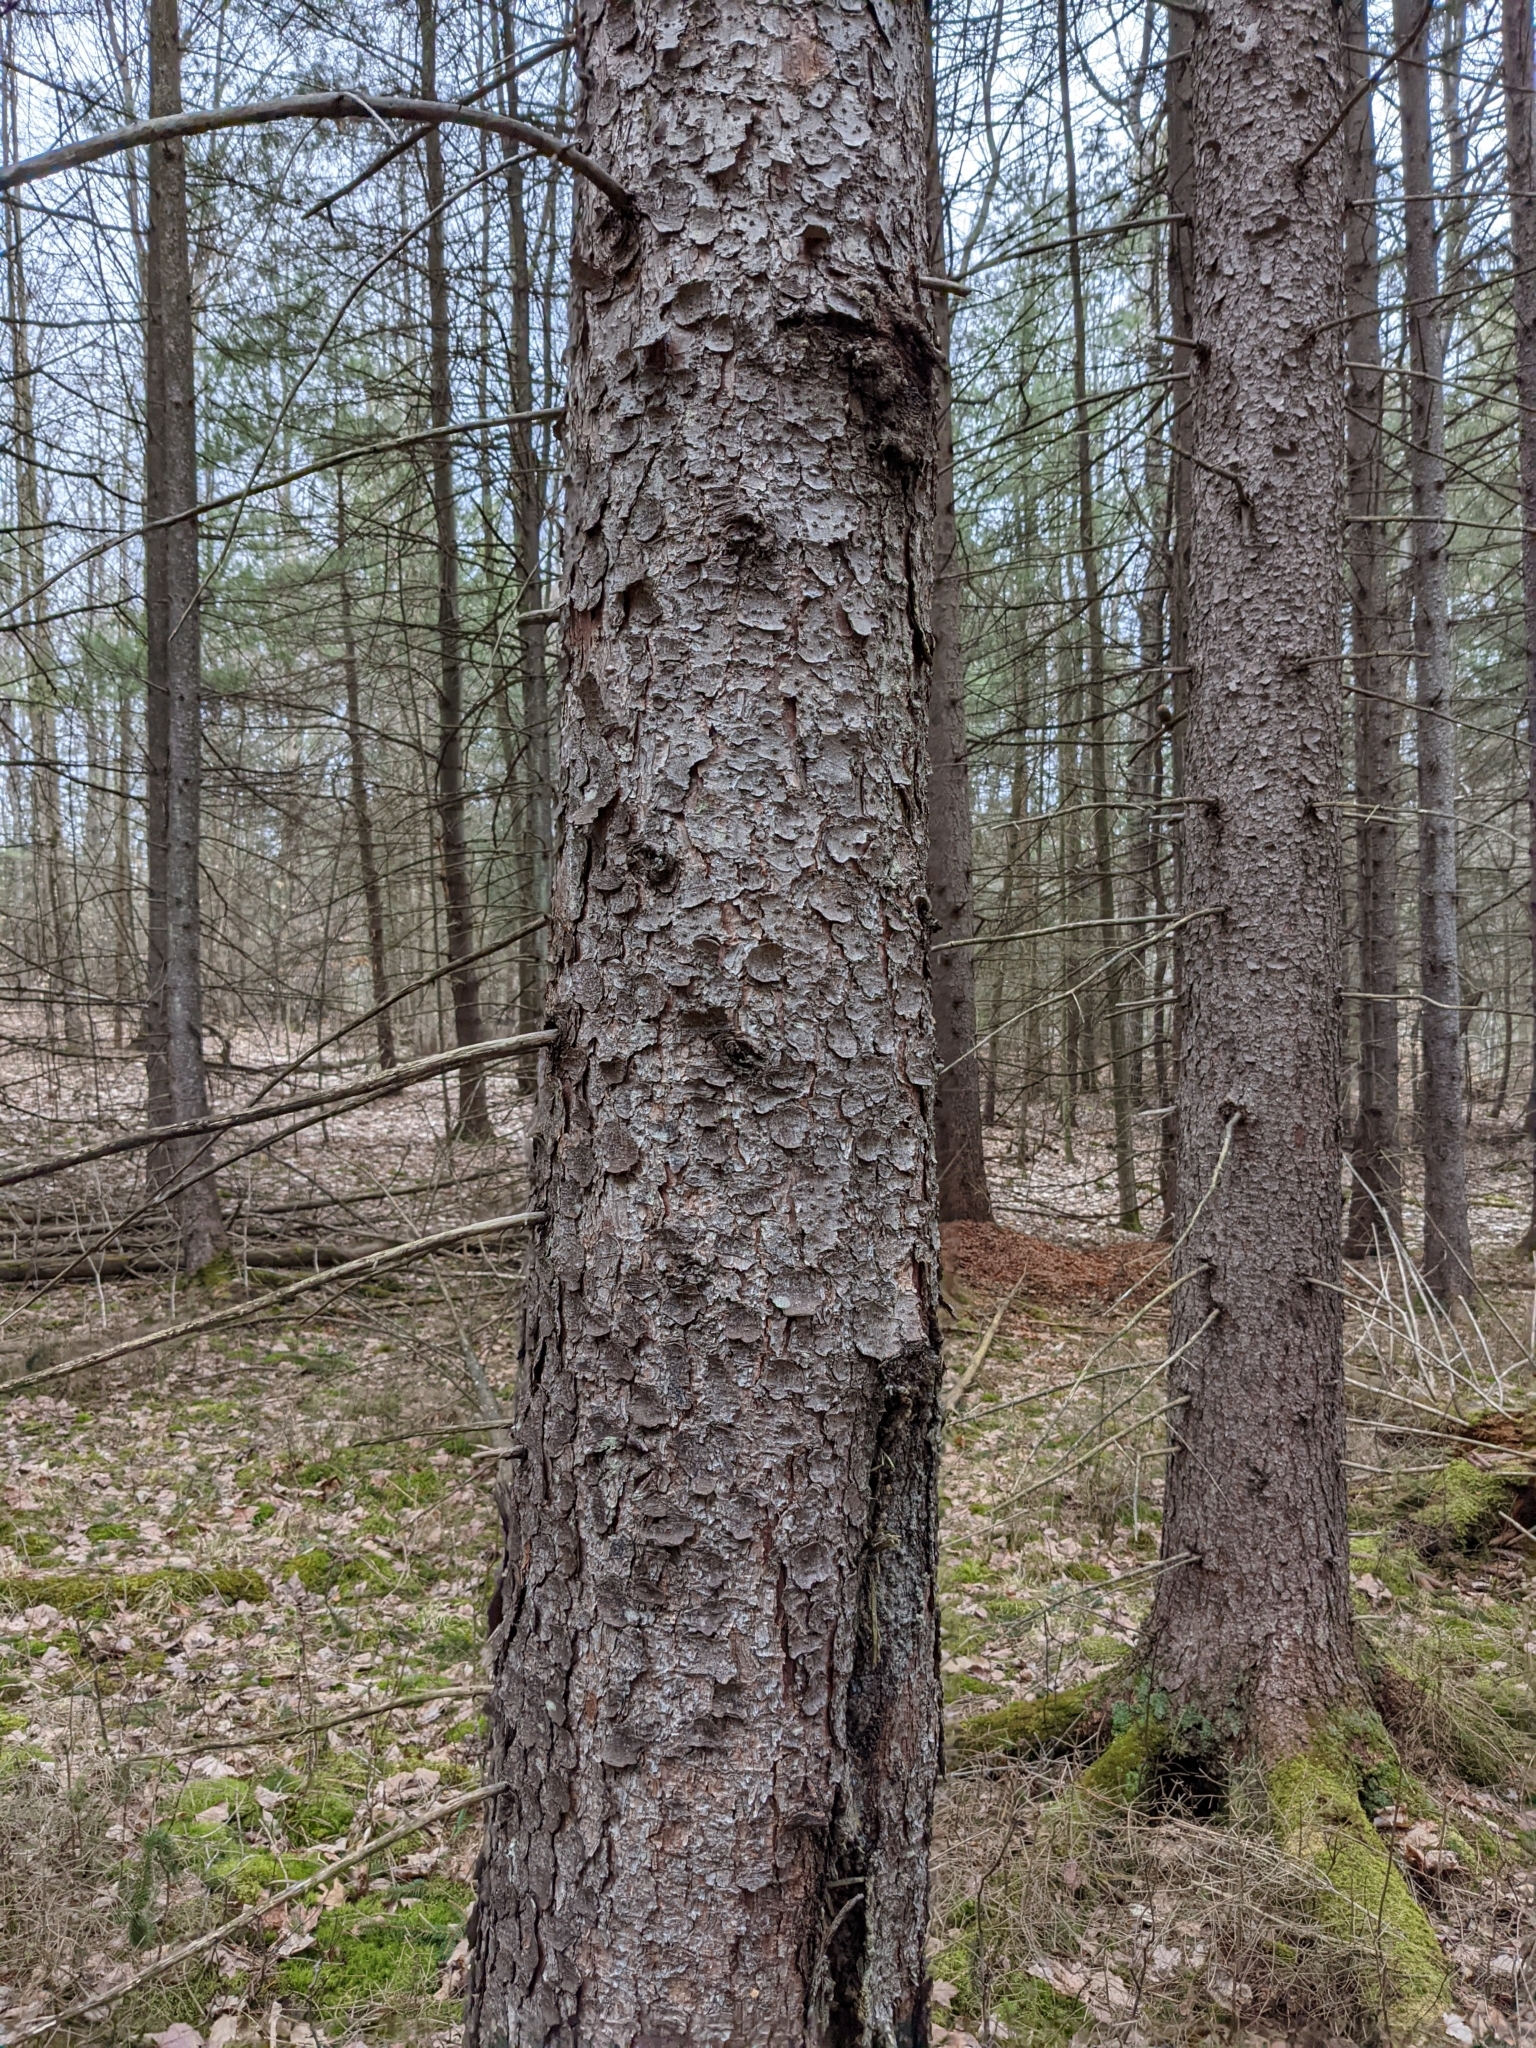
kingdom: Plantae
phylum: Tracheophyta
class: Pinopsida
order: Pinales
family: Pinaceae
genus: Picea
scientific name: Picea abies
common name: Norway spruce
